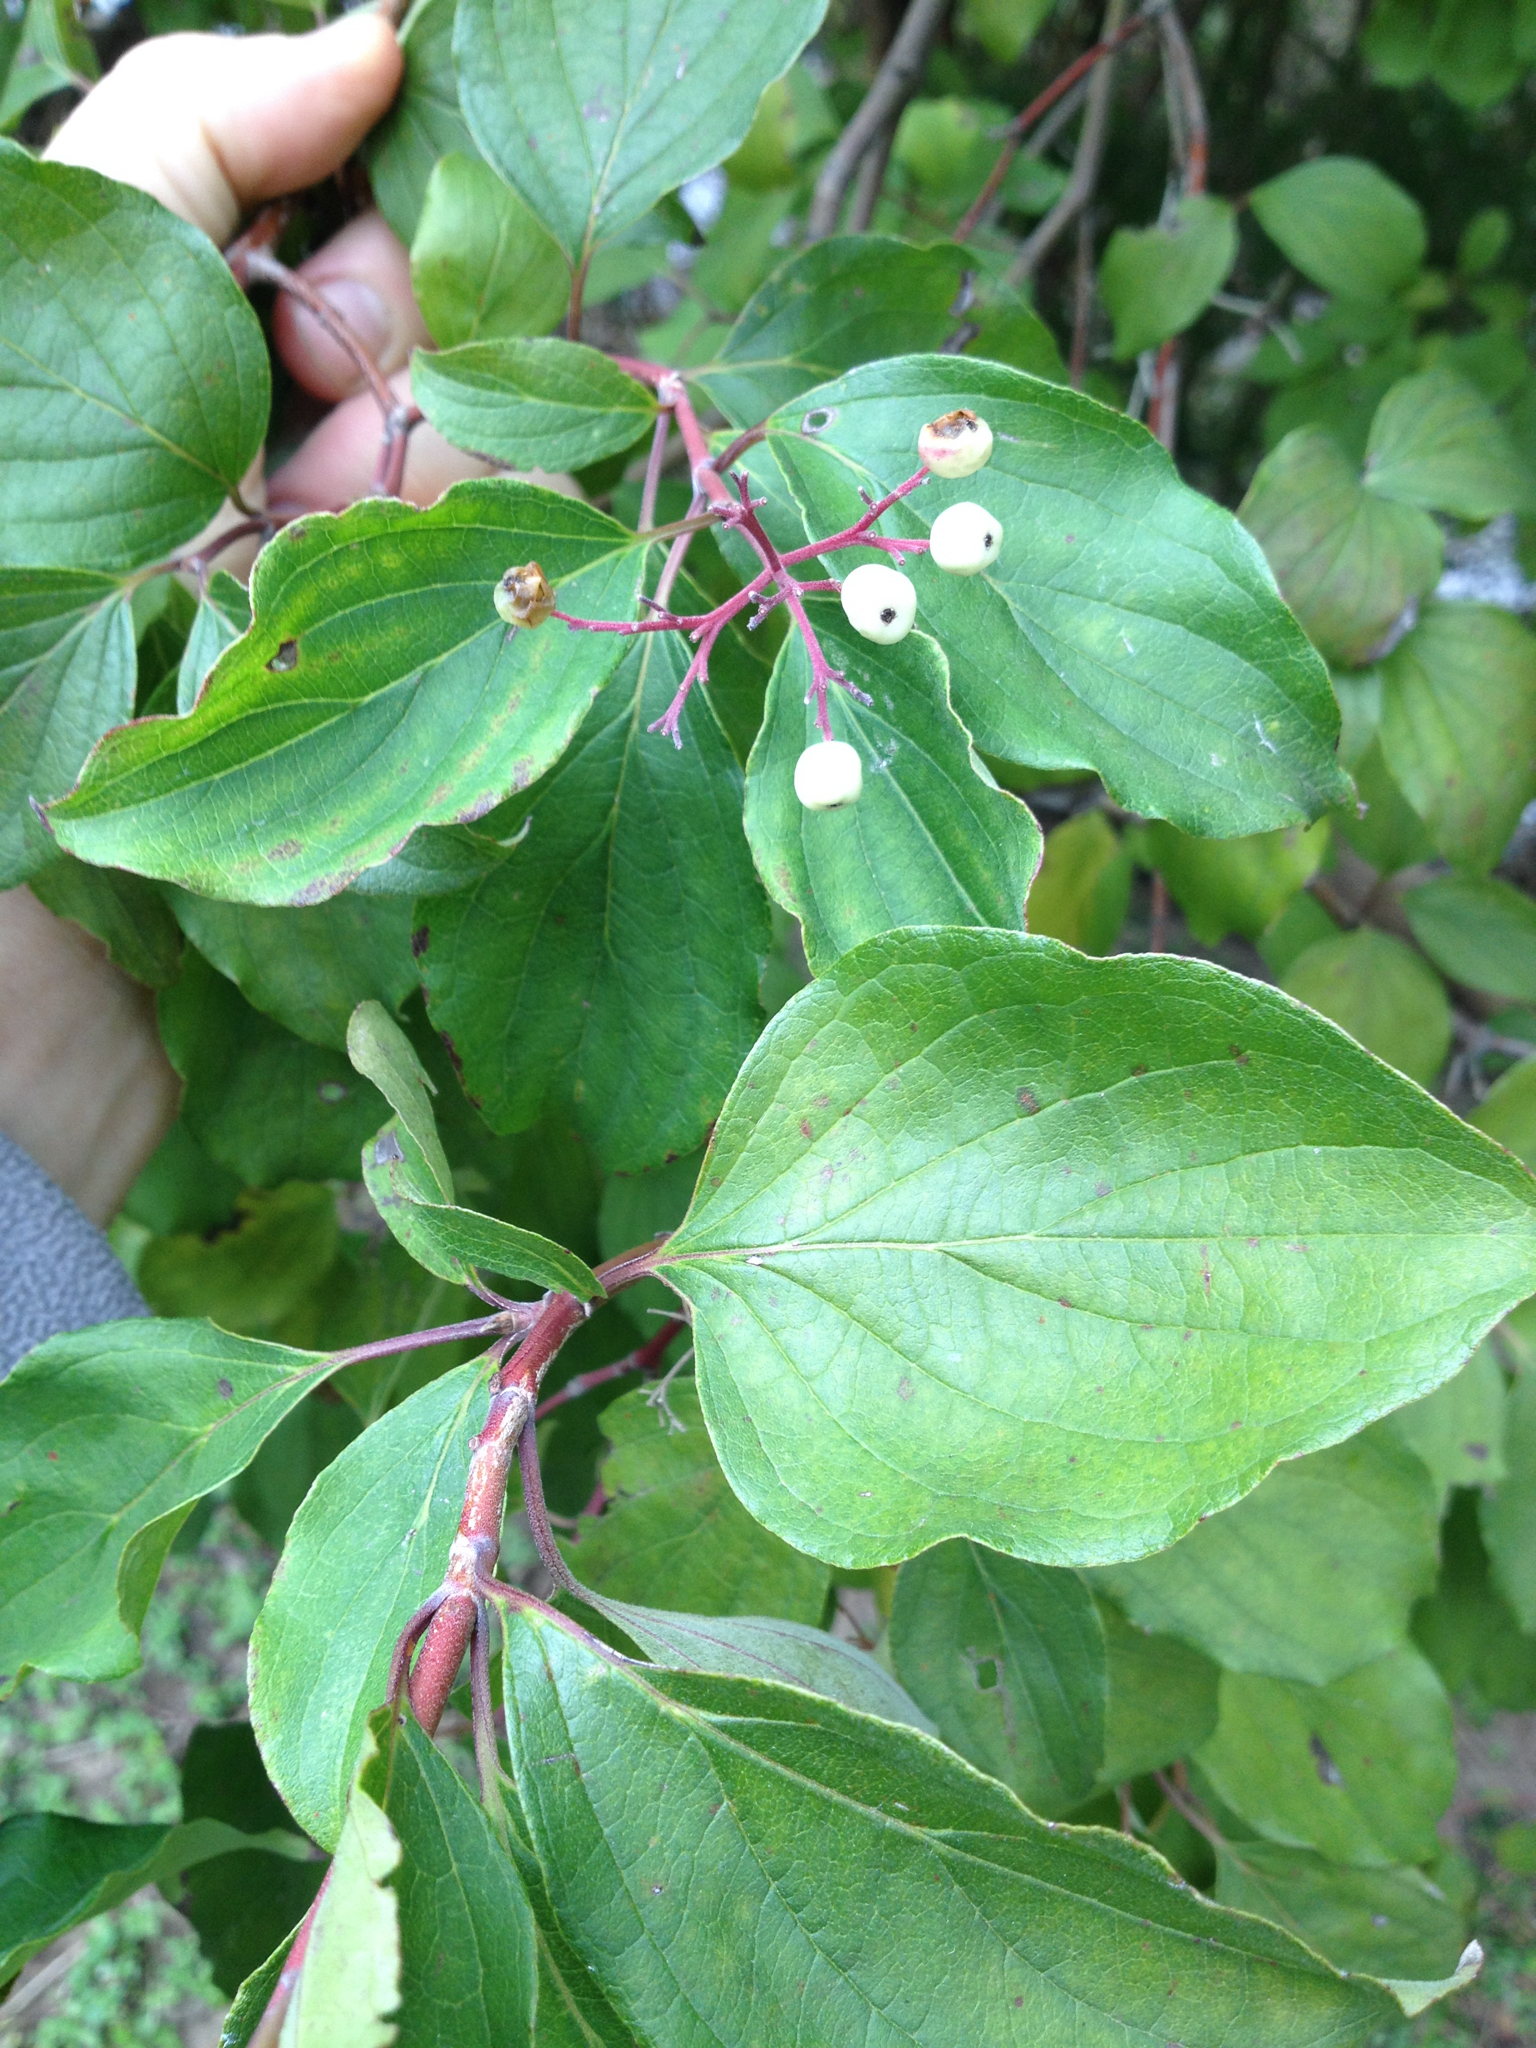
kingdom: Plantae
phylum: Tracheophyta
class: Magnoliopsida
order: Cornales
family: Cornaceae
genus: Cornus
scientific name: Cornus drummondii
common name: Rough-leaf dogwood
